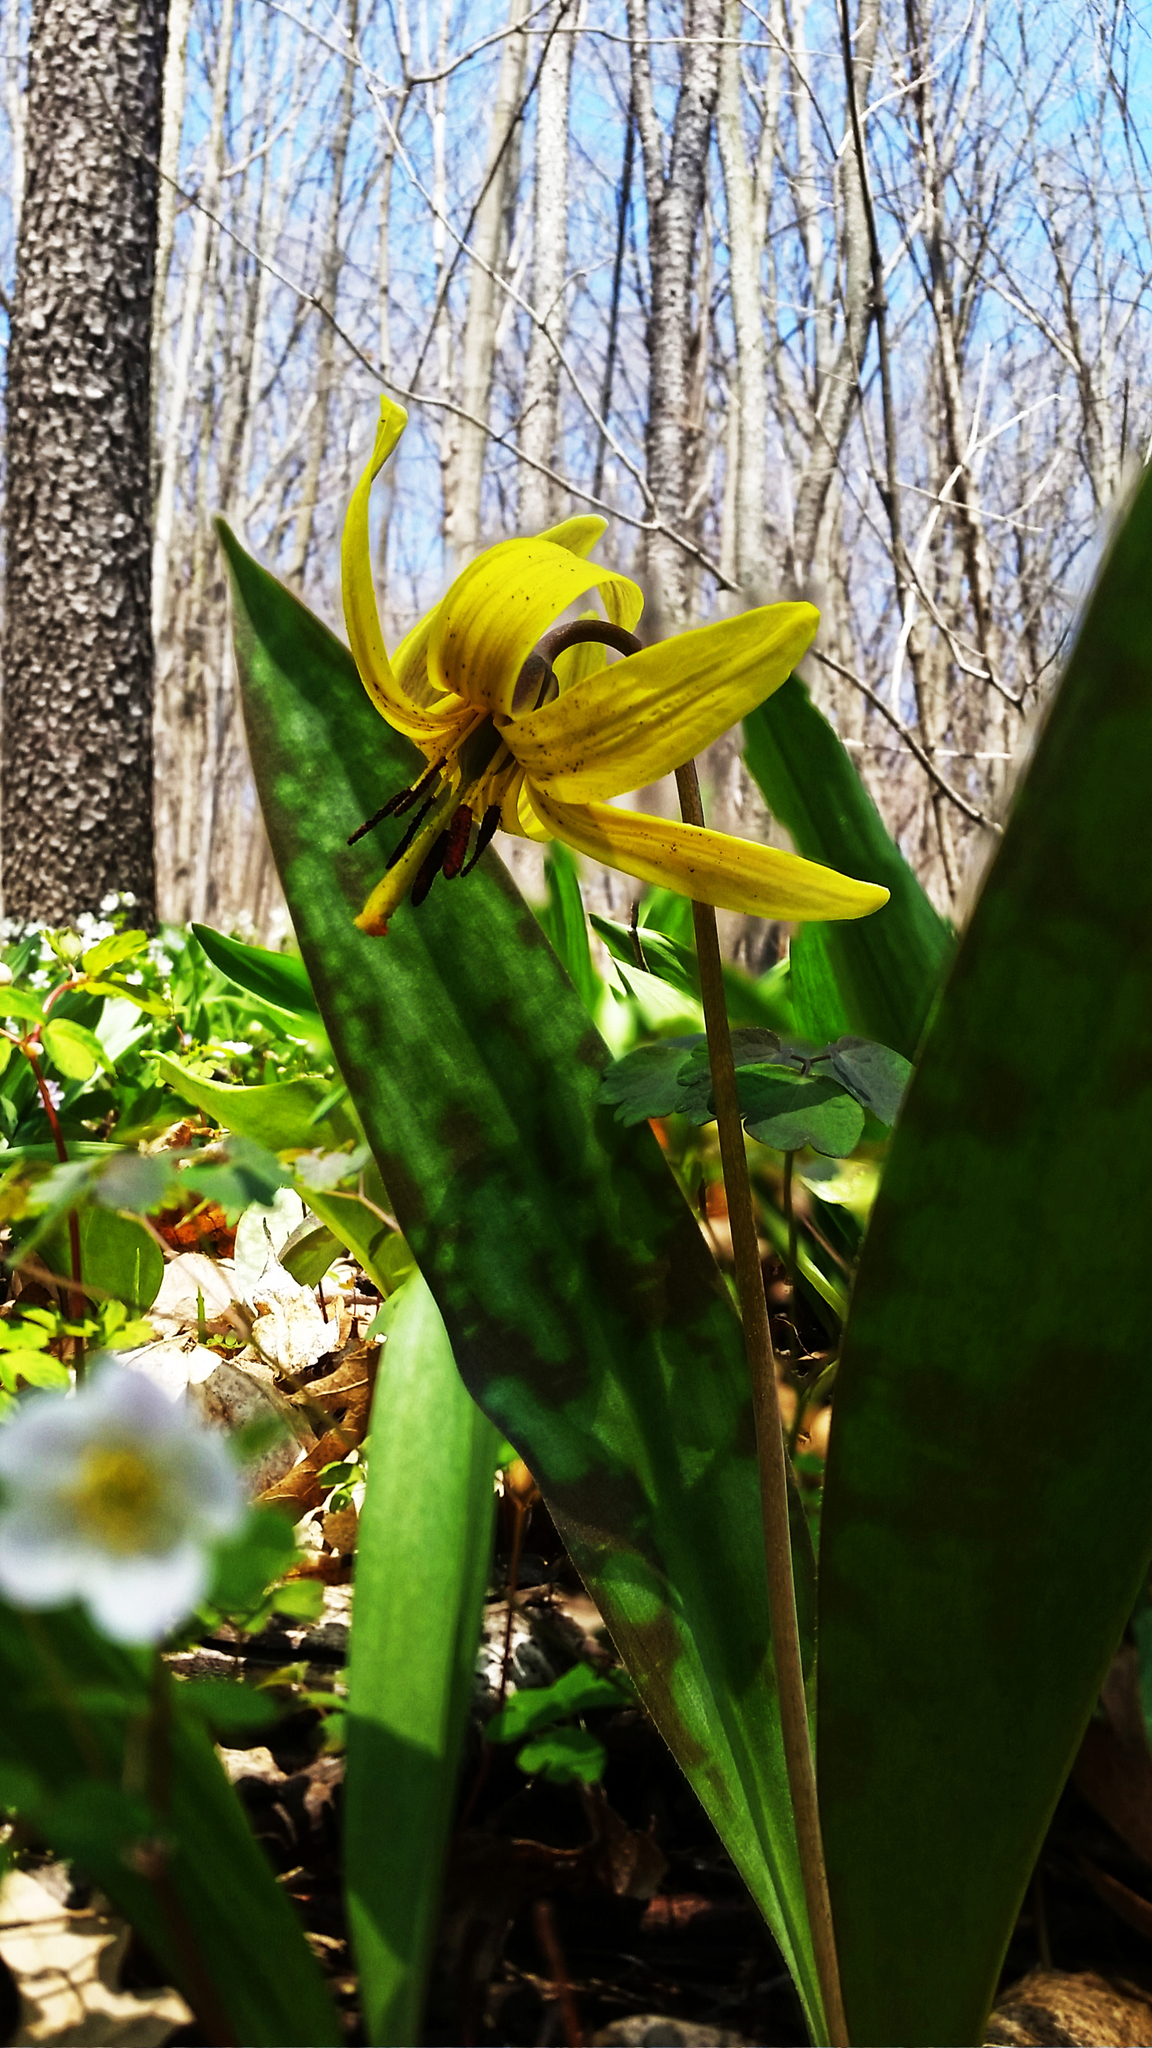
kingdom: Plantae
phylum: Tracheophyta
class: Liliopsida
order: Liliales
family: Liliaceae
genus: Erythronium
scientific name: Erythronium americanum
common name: Yellow adder's-tongue
